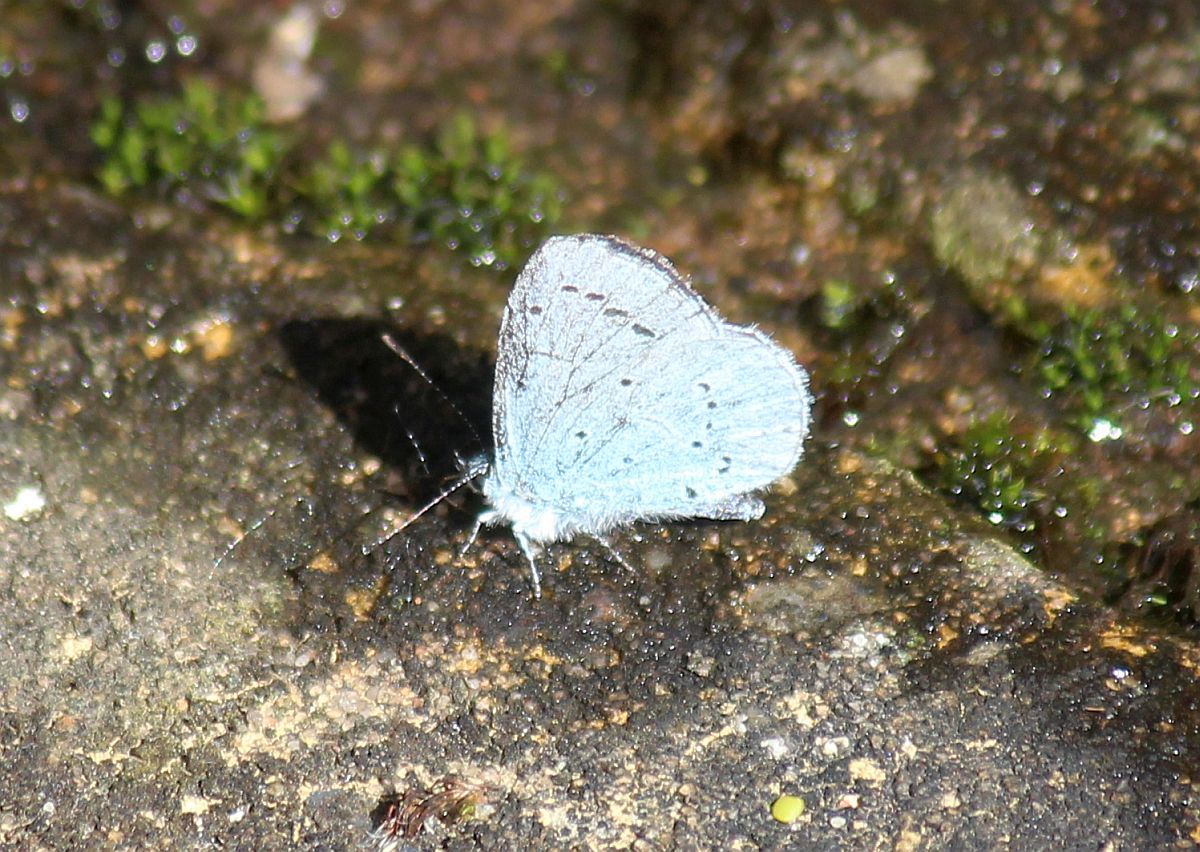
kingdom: Animalia
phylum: Arthropoda
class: Insecta
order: Lepidoptera
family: Lycaenidae
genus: Celastrina
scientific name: Celastrina argiolus
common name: Holly blue
